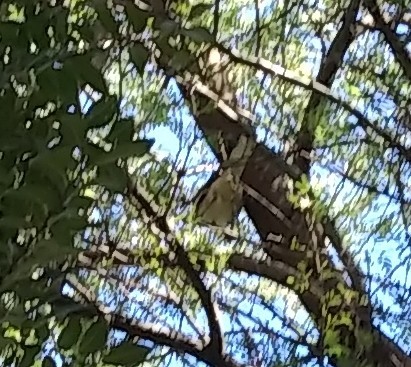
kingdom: Animalia
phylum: Chordata
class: Aves
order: Passeriformes
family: Mimidae
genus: Mimus
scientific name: Mimus polyglottos
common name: Northern mockingbird
